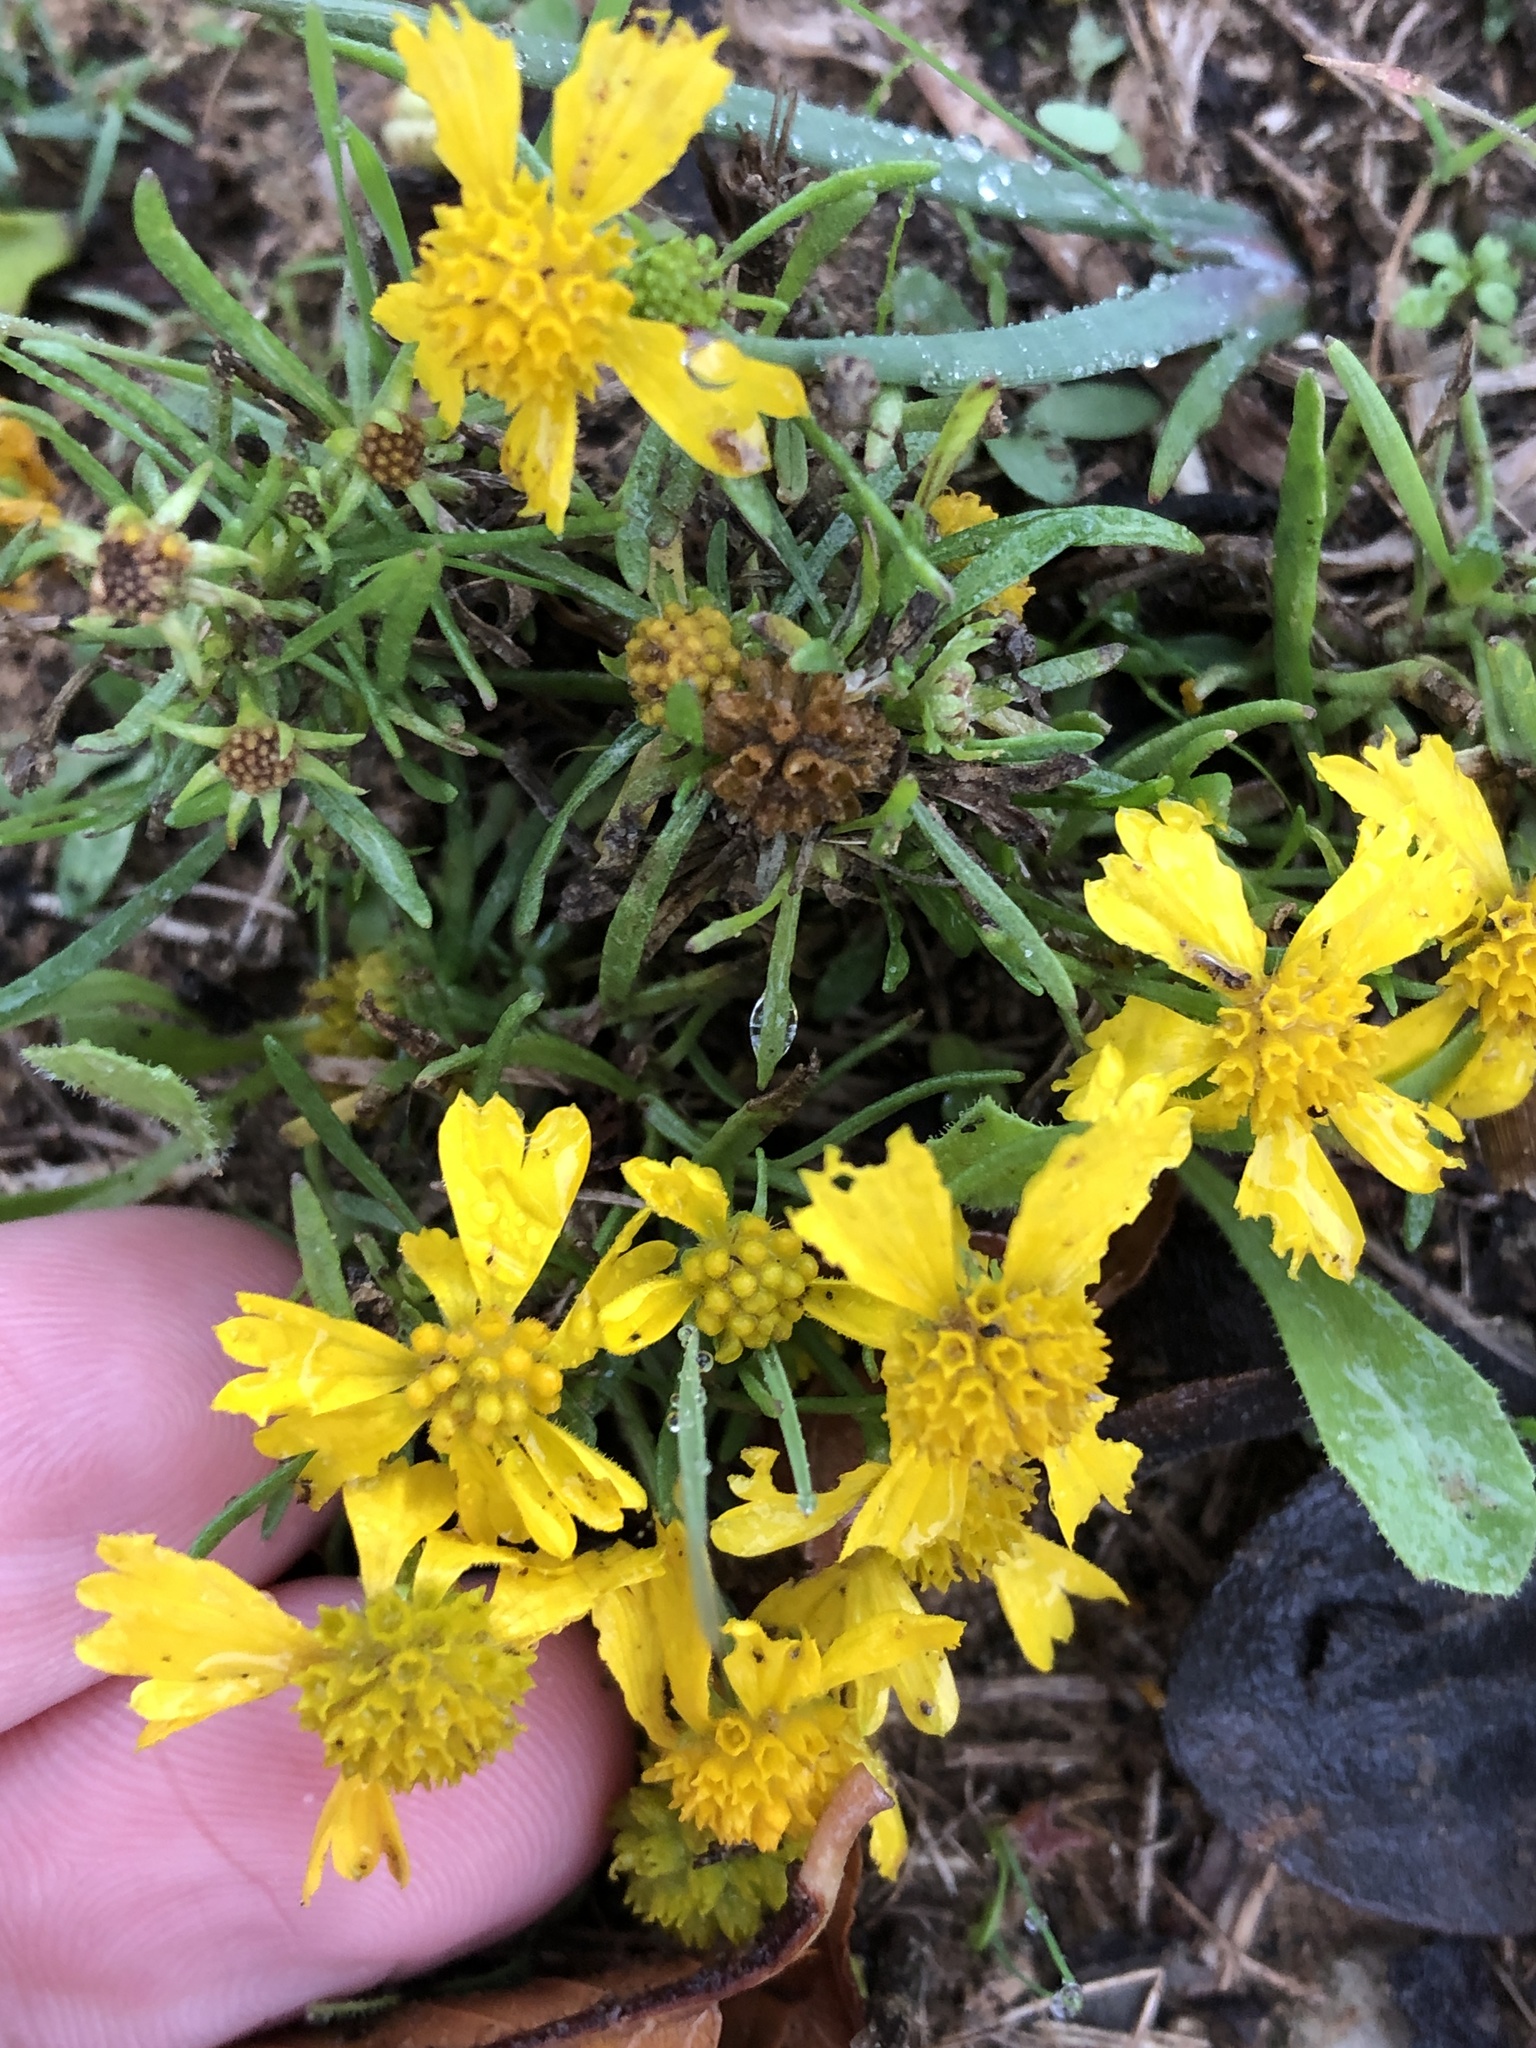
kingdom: Plantae
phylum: Tracheophyta
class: Magnoliopsida
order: Asterales
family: Asteraceae
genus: Helenium
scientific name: Helenium amarum
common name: Bitter sneezeweed
